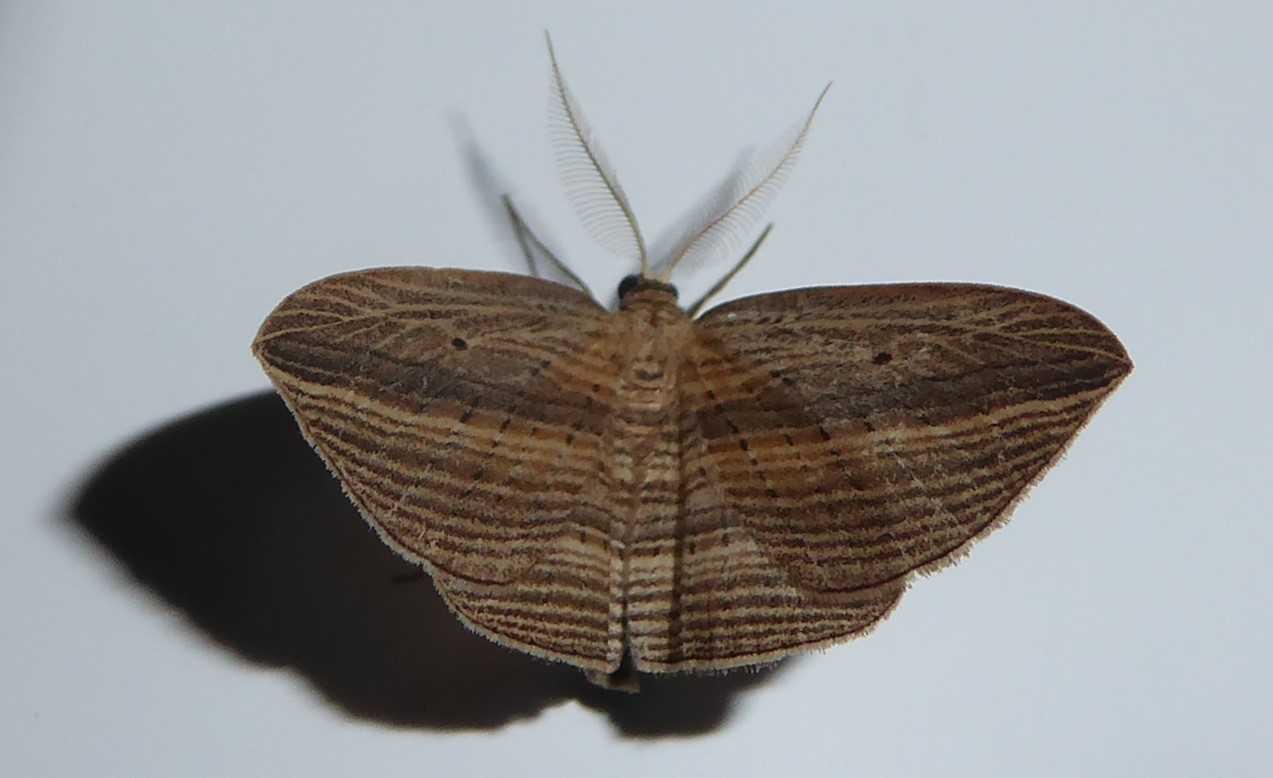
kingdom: Animalia
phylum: Arthropoda
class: Insecta
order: Lepidoptera
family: Geometridae
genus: Epiphryne
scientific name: Epiphryne verriculata
